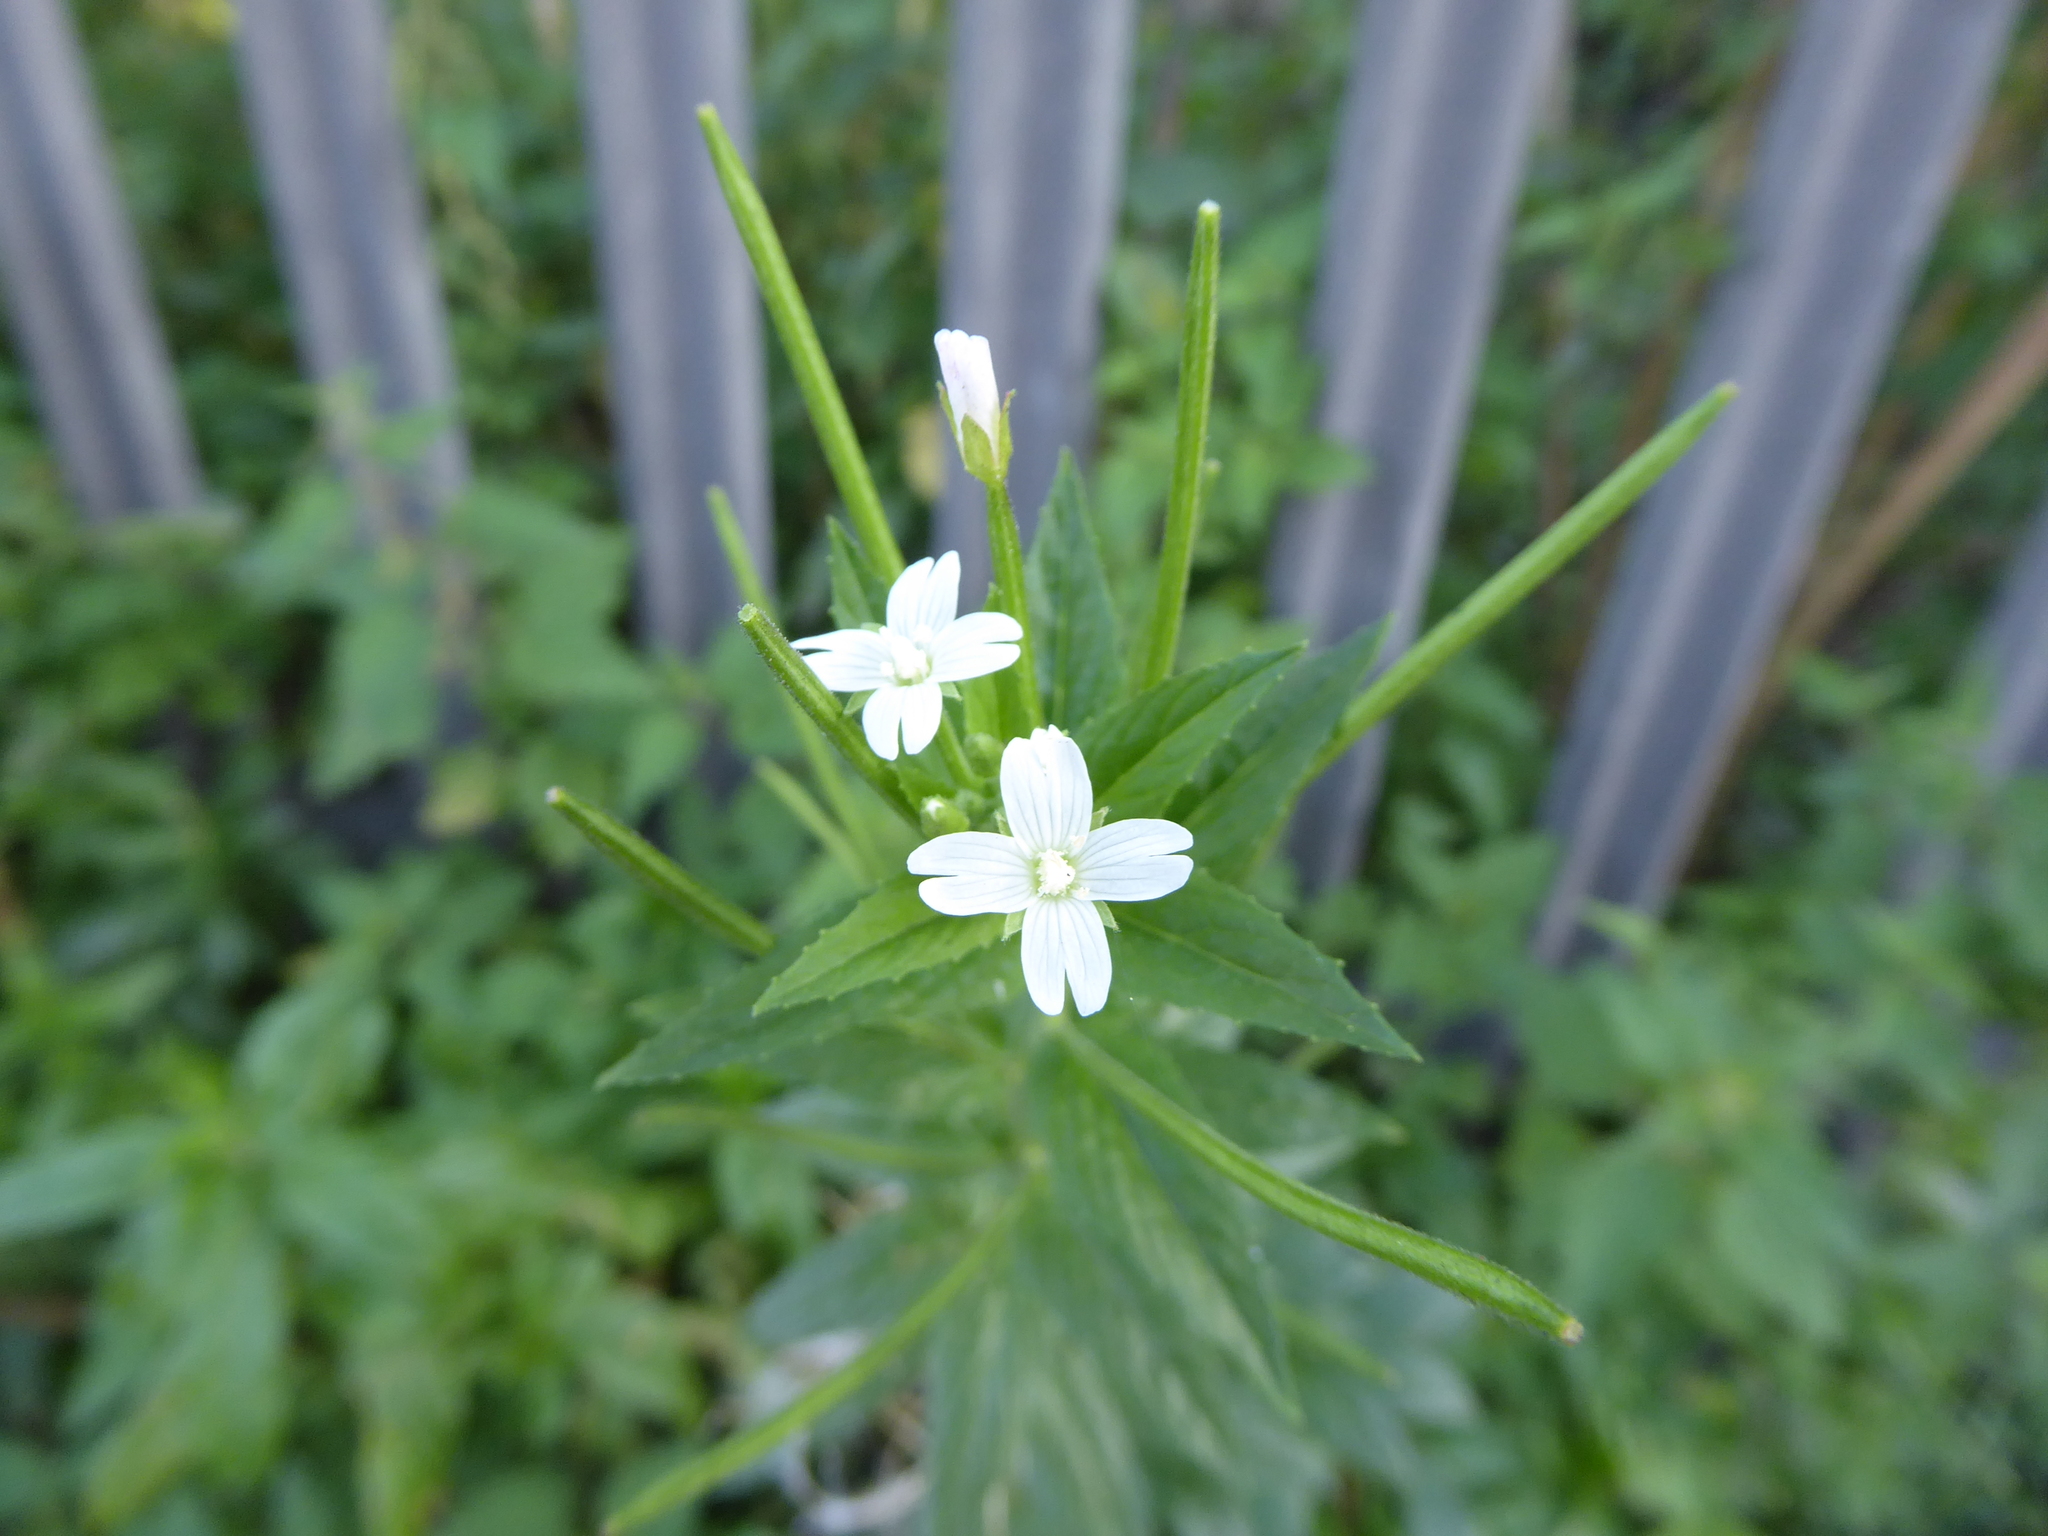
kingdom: Plantae
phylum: Tracheophyta
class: Magnoliopsida
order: Myrtales
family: Onagraceae
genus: Epilobium
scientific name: Epilobium ciliatum
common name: American willowherb
